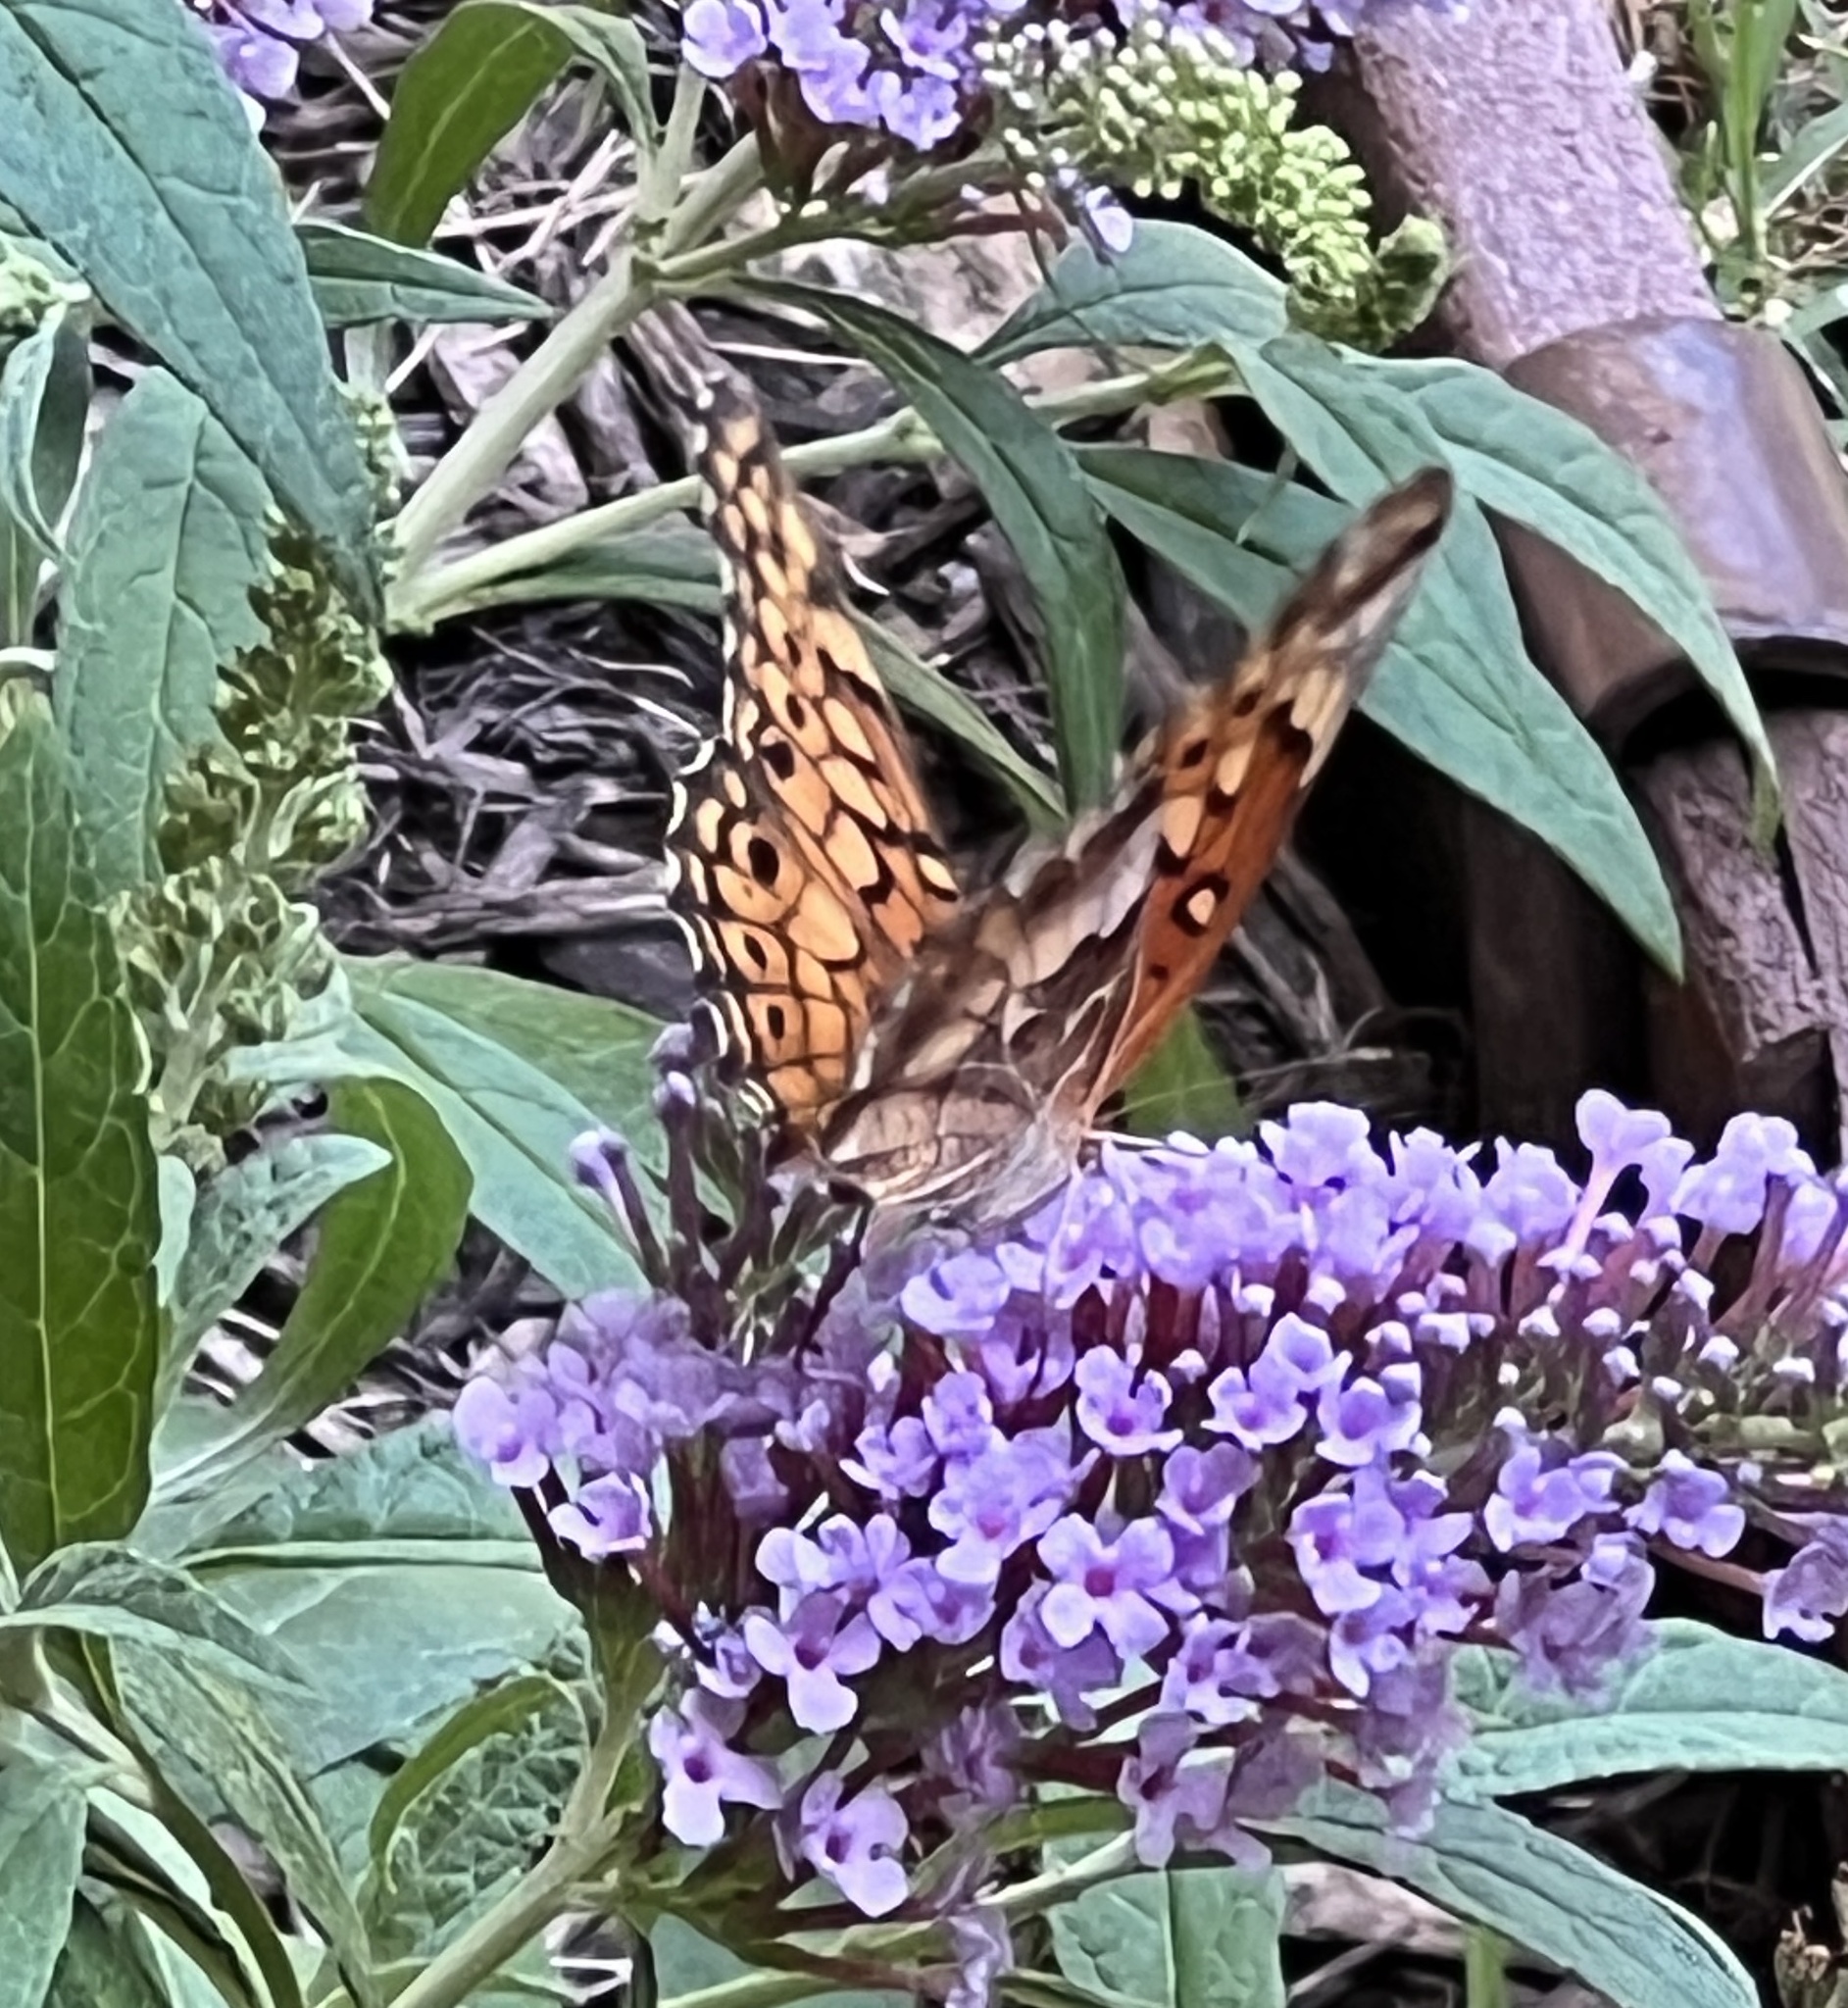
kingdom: Animalia
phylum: Arthropoda
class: Insecta
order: Lepidoptera
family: Nymphalidae
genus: Euptoieta
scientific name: Euptoieta claudia
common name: Variegated fritillary
